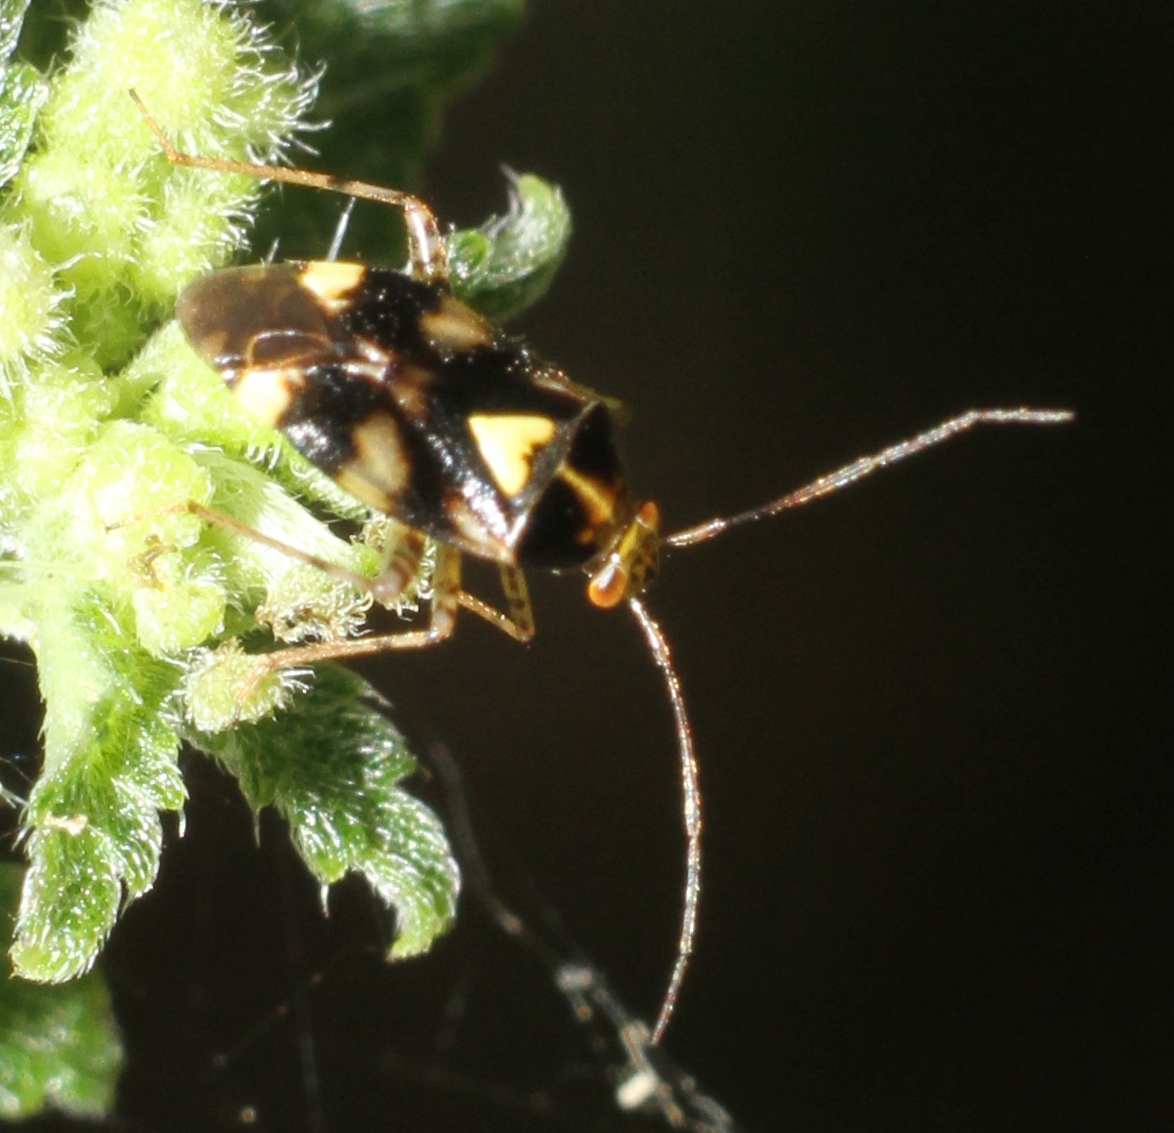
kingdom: Animalia
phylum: Arthropoda
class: Insecta
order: Hemiptera
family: Miridae
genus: Liocoris
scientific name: Liocoris tripustulatus
